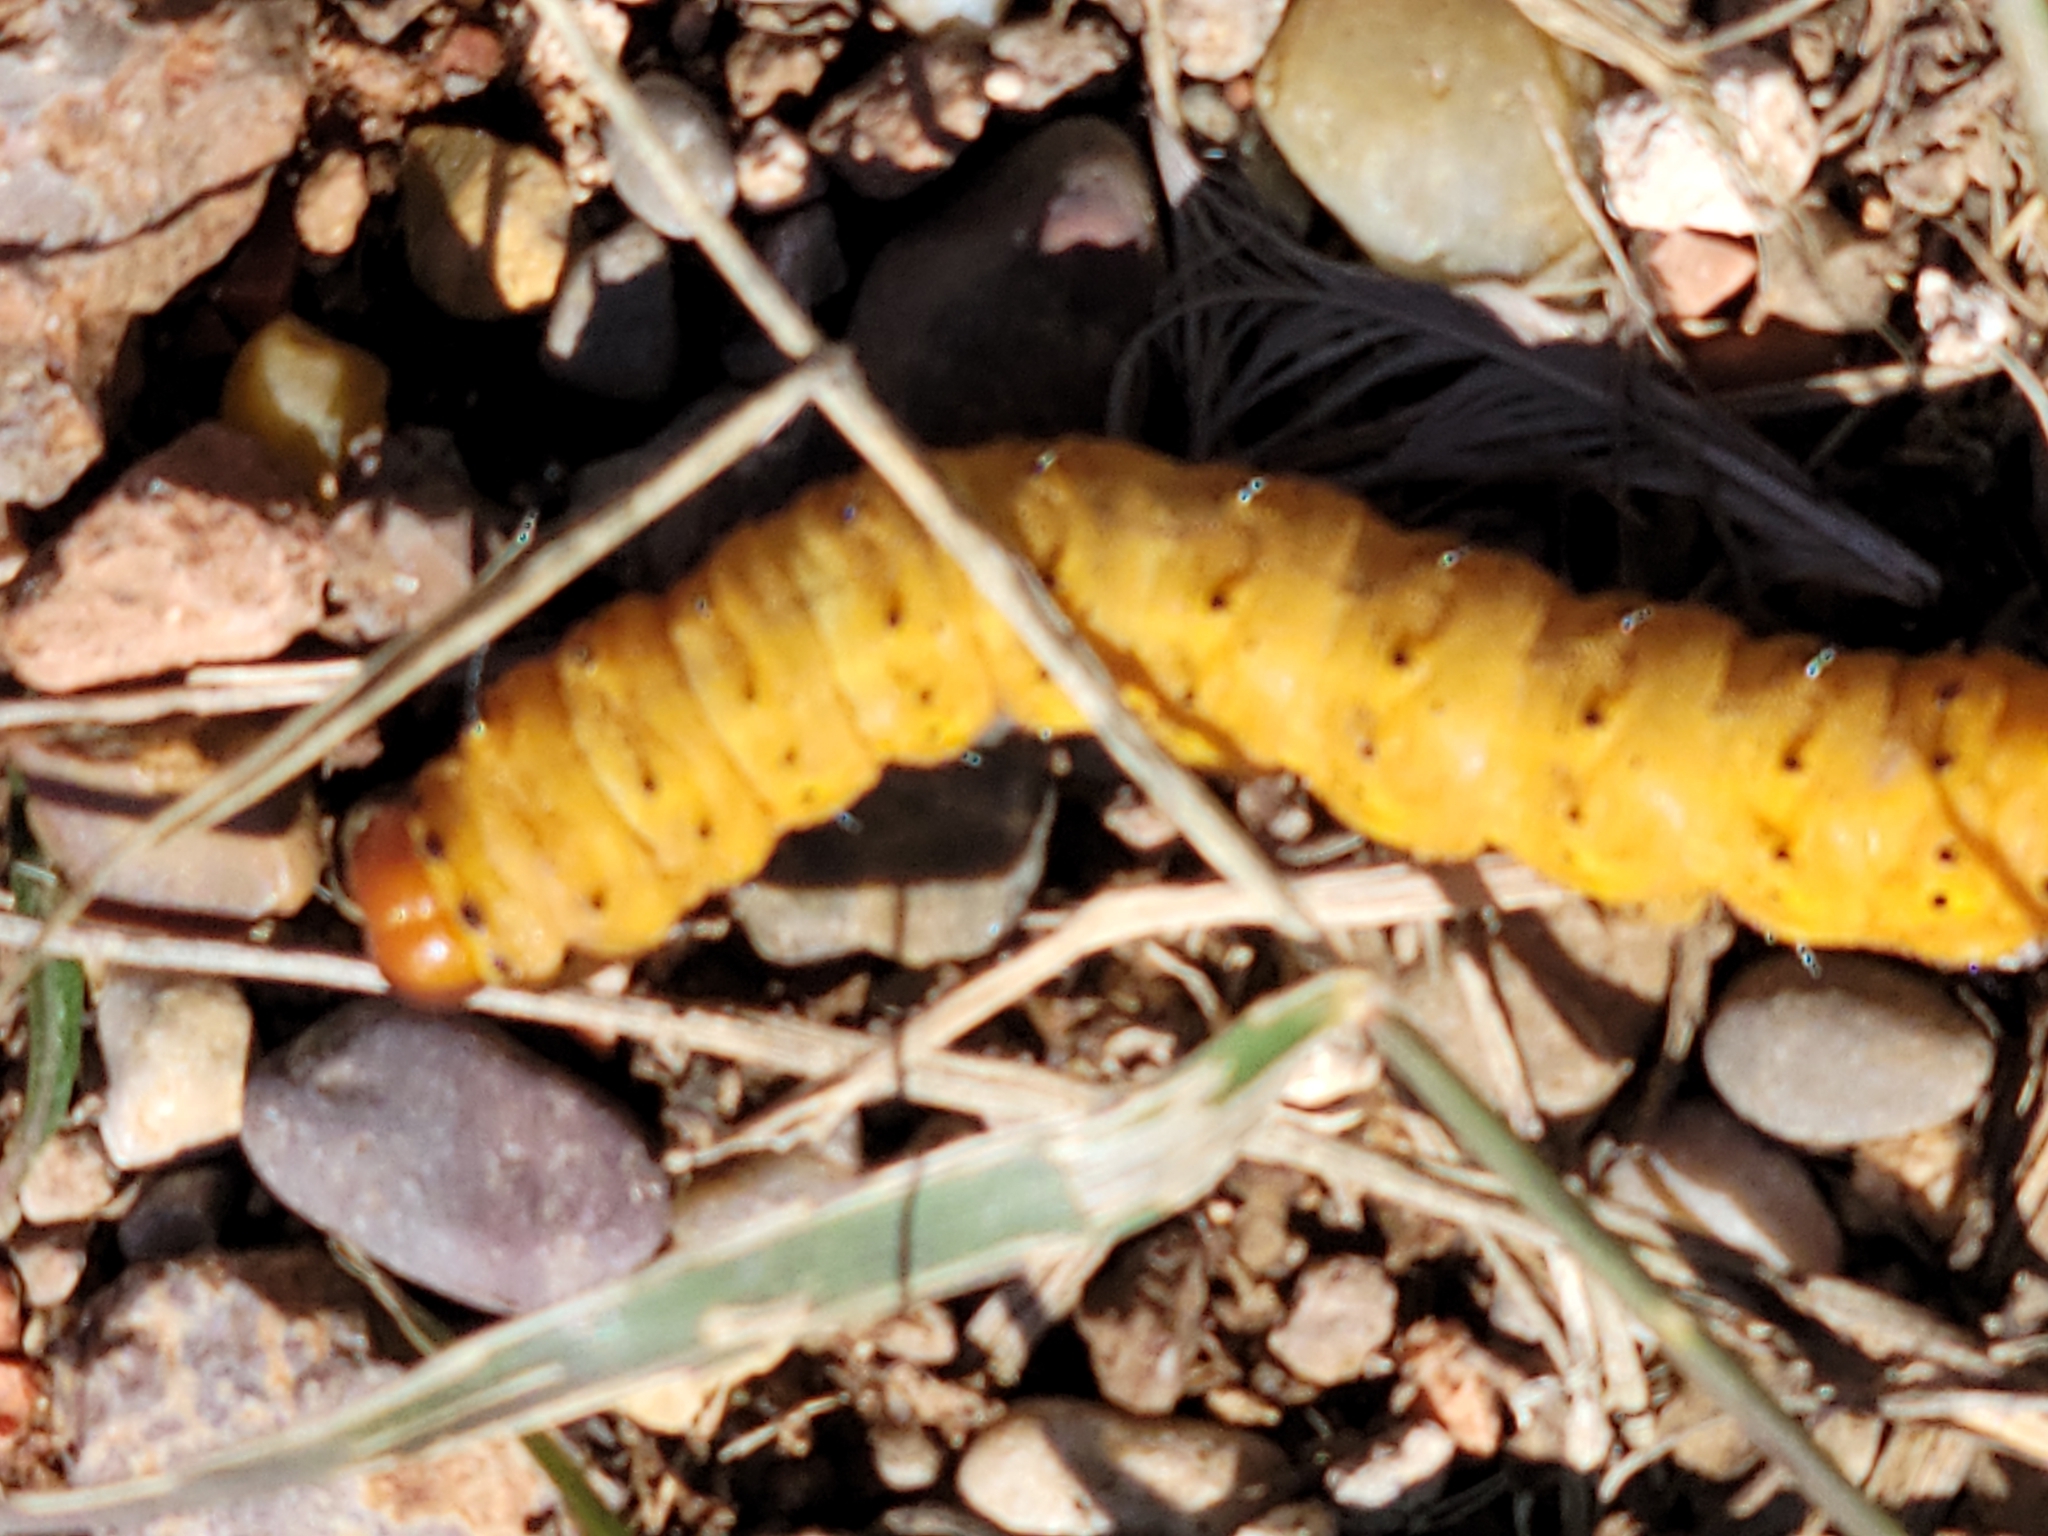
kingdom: Animalia
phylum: Arthropoda
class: Insecta
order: Lepidoptera
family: Saturniidae
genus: Anisota
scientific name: Anisota oslari
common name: Oslar's oakworm moth
